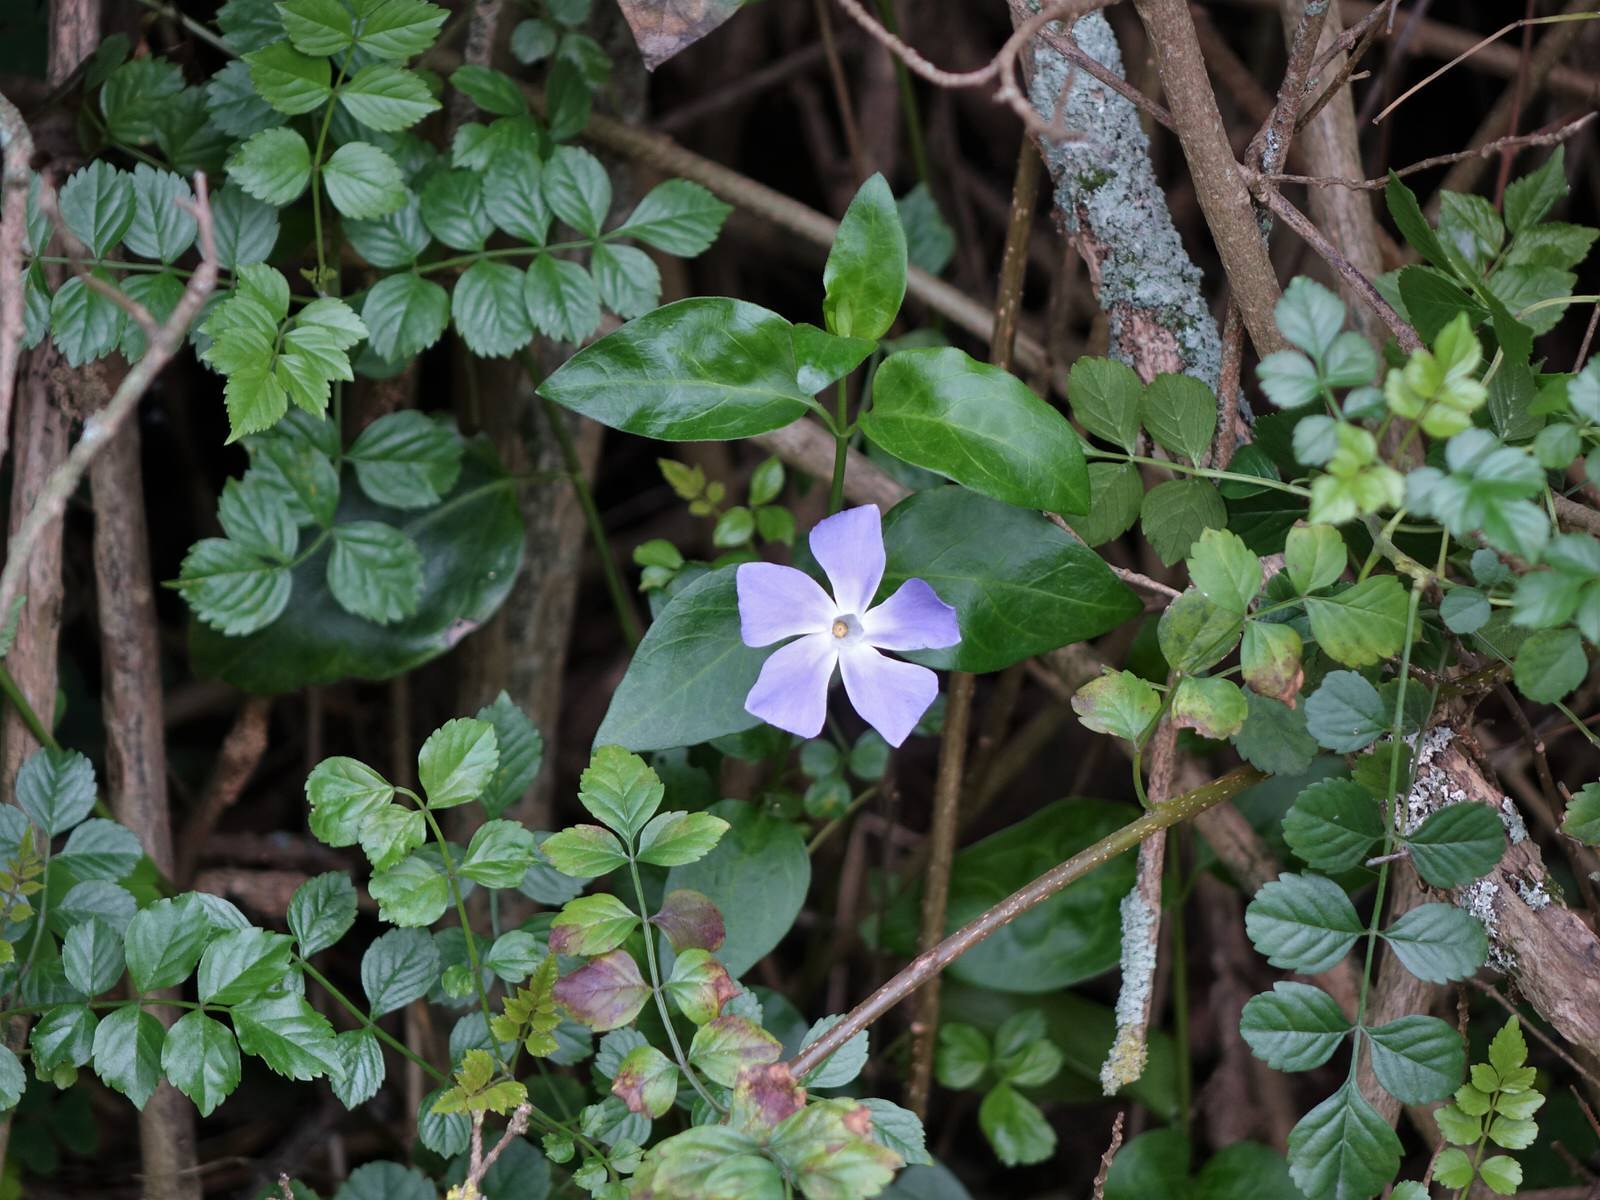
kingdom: Plantae
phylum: Tracheophyta
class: Magnoliopsida
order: Gentianales
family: Apocynaceae
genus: Vinca
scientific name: Vinca major
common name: Greater periwinkle
